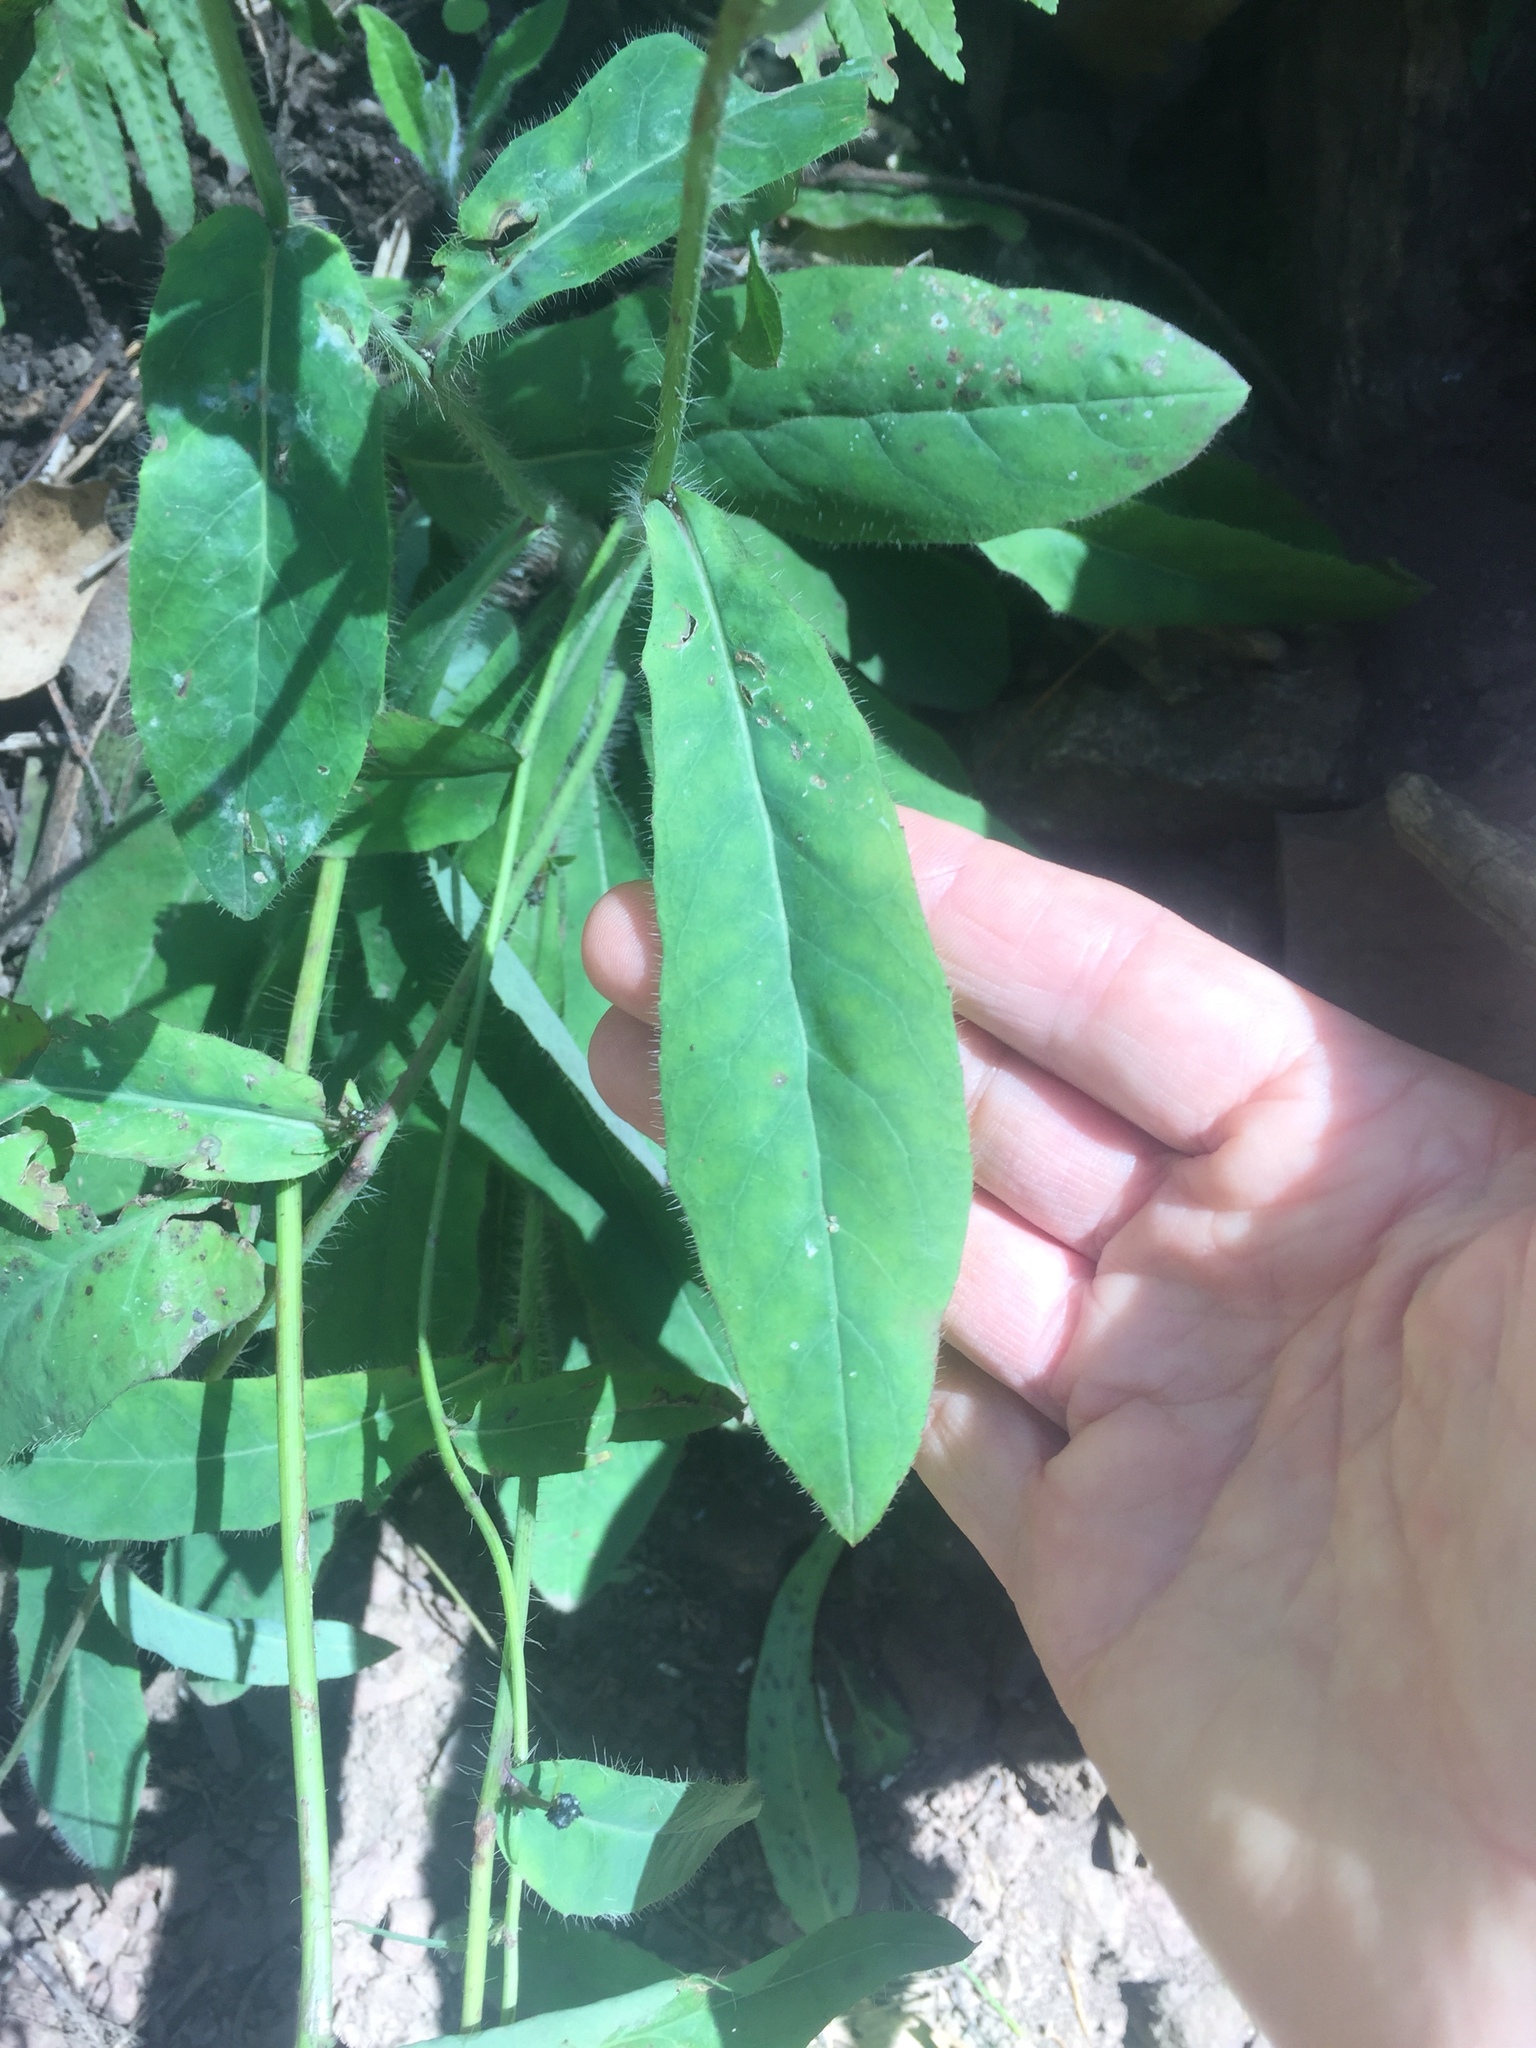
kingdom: Plantae
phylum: Tracheophyta
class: Magnoliopsida
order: Asterales
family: Asteraceae
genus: Hieracium
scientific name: Hieracium albiflorum
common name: White hawkweed
